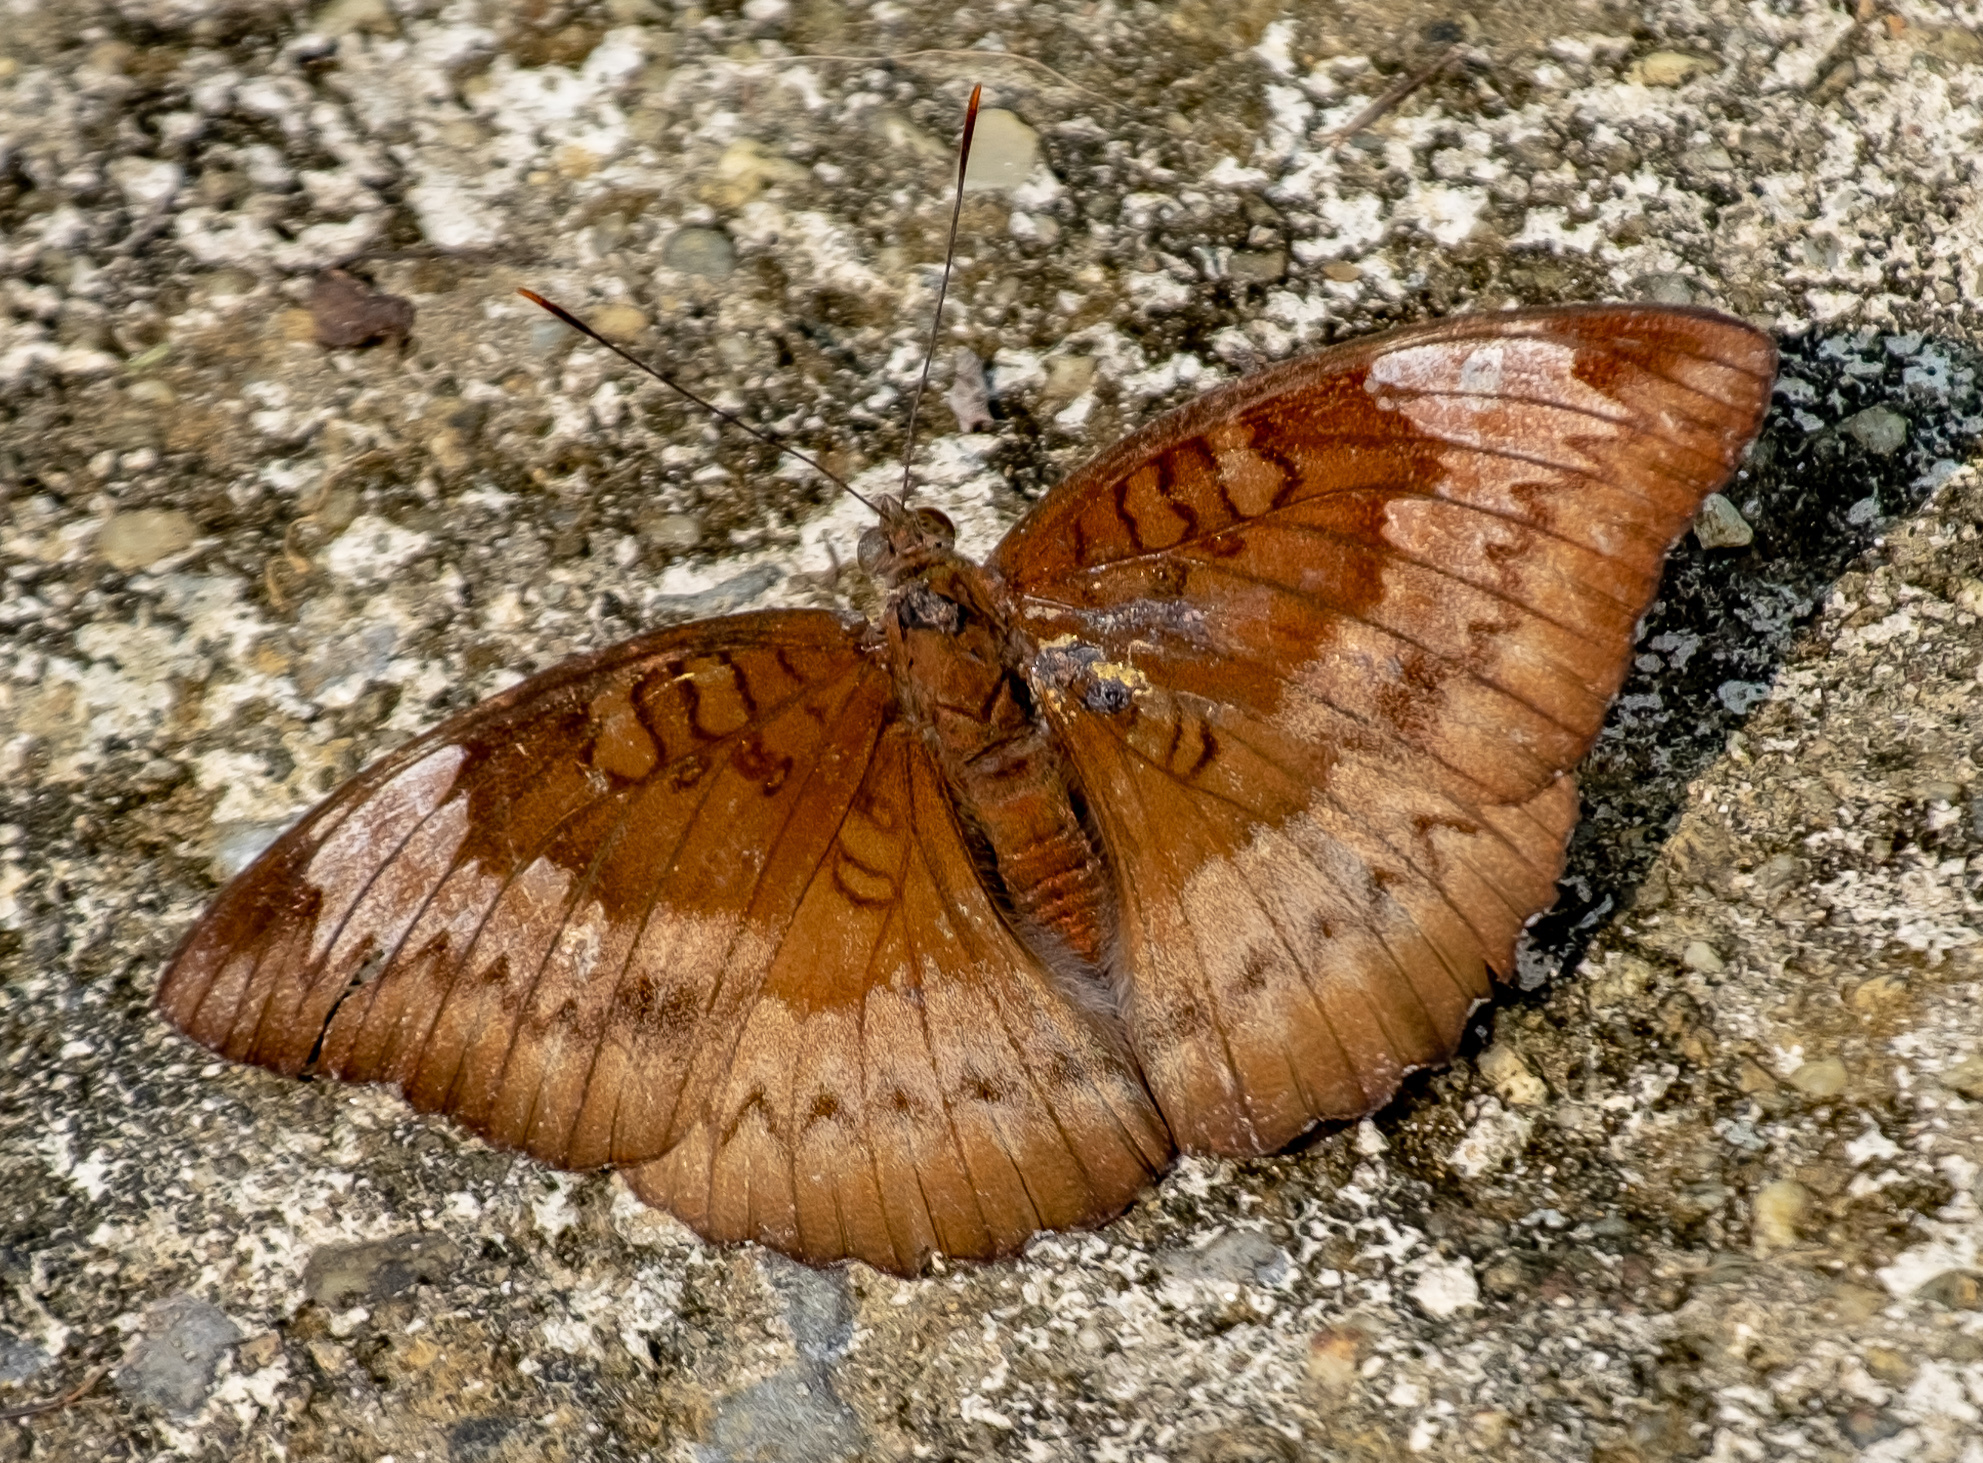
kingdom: Animalia
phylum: Arthropoda
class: Insecta
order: Lepidoptera
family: Nymphalidae
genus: Euthalia
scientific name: Euthalia monina
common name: Powdered baron
